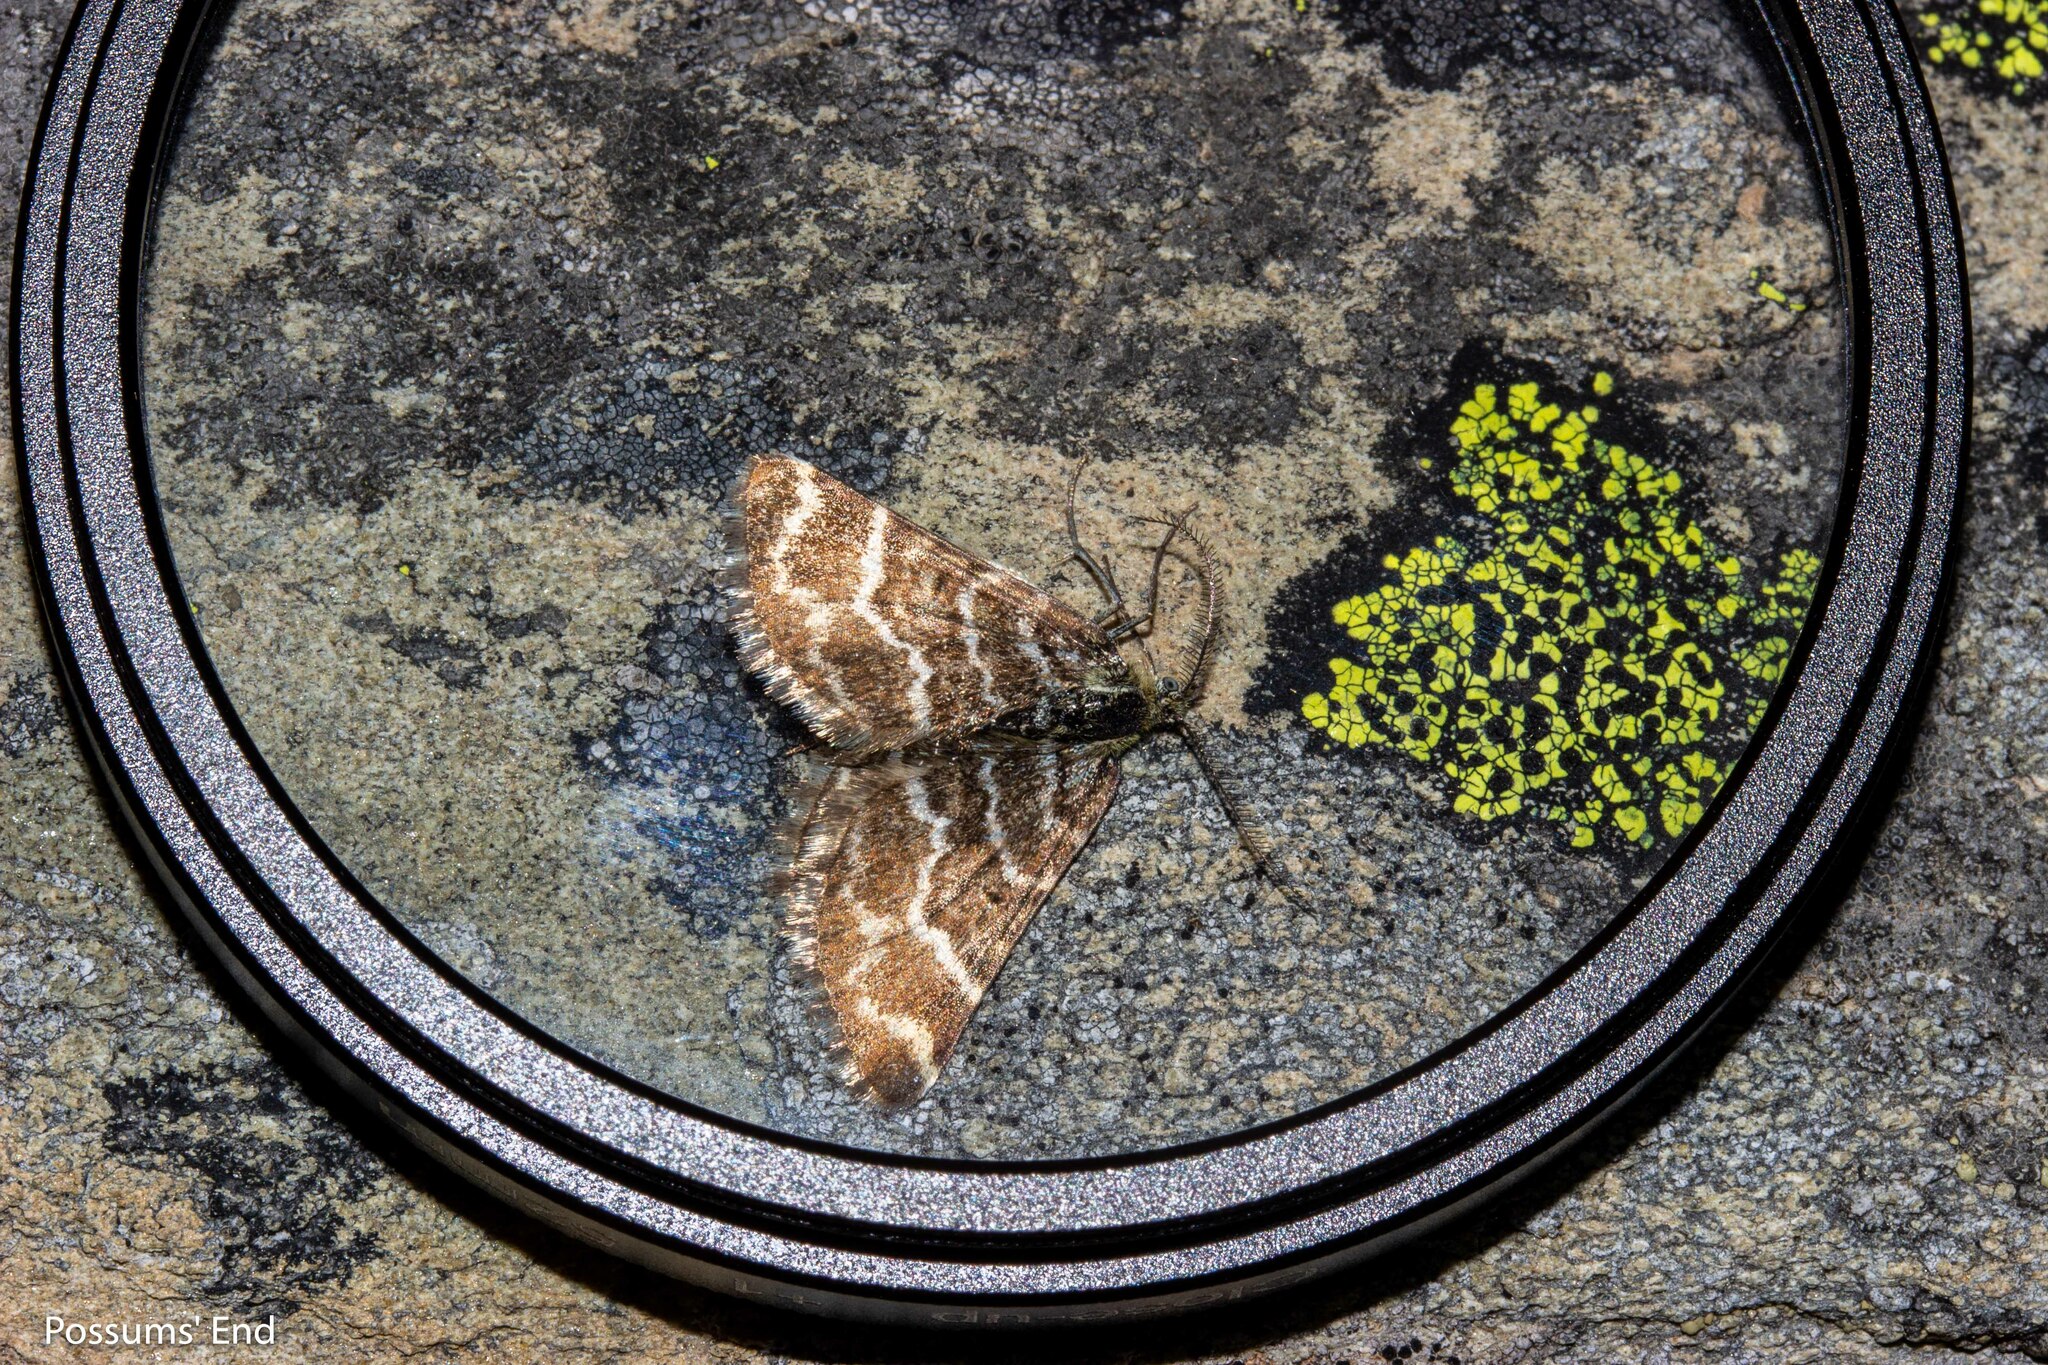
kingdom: Animalia
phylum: Arthropoda
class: Insecta
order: Lepidoptera
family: Geometridae
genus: Notoreas
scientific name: Notoreas paradelpha
